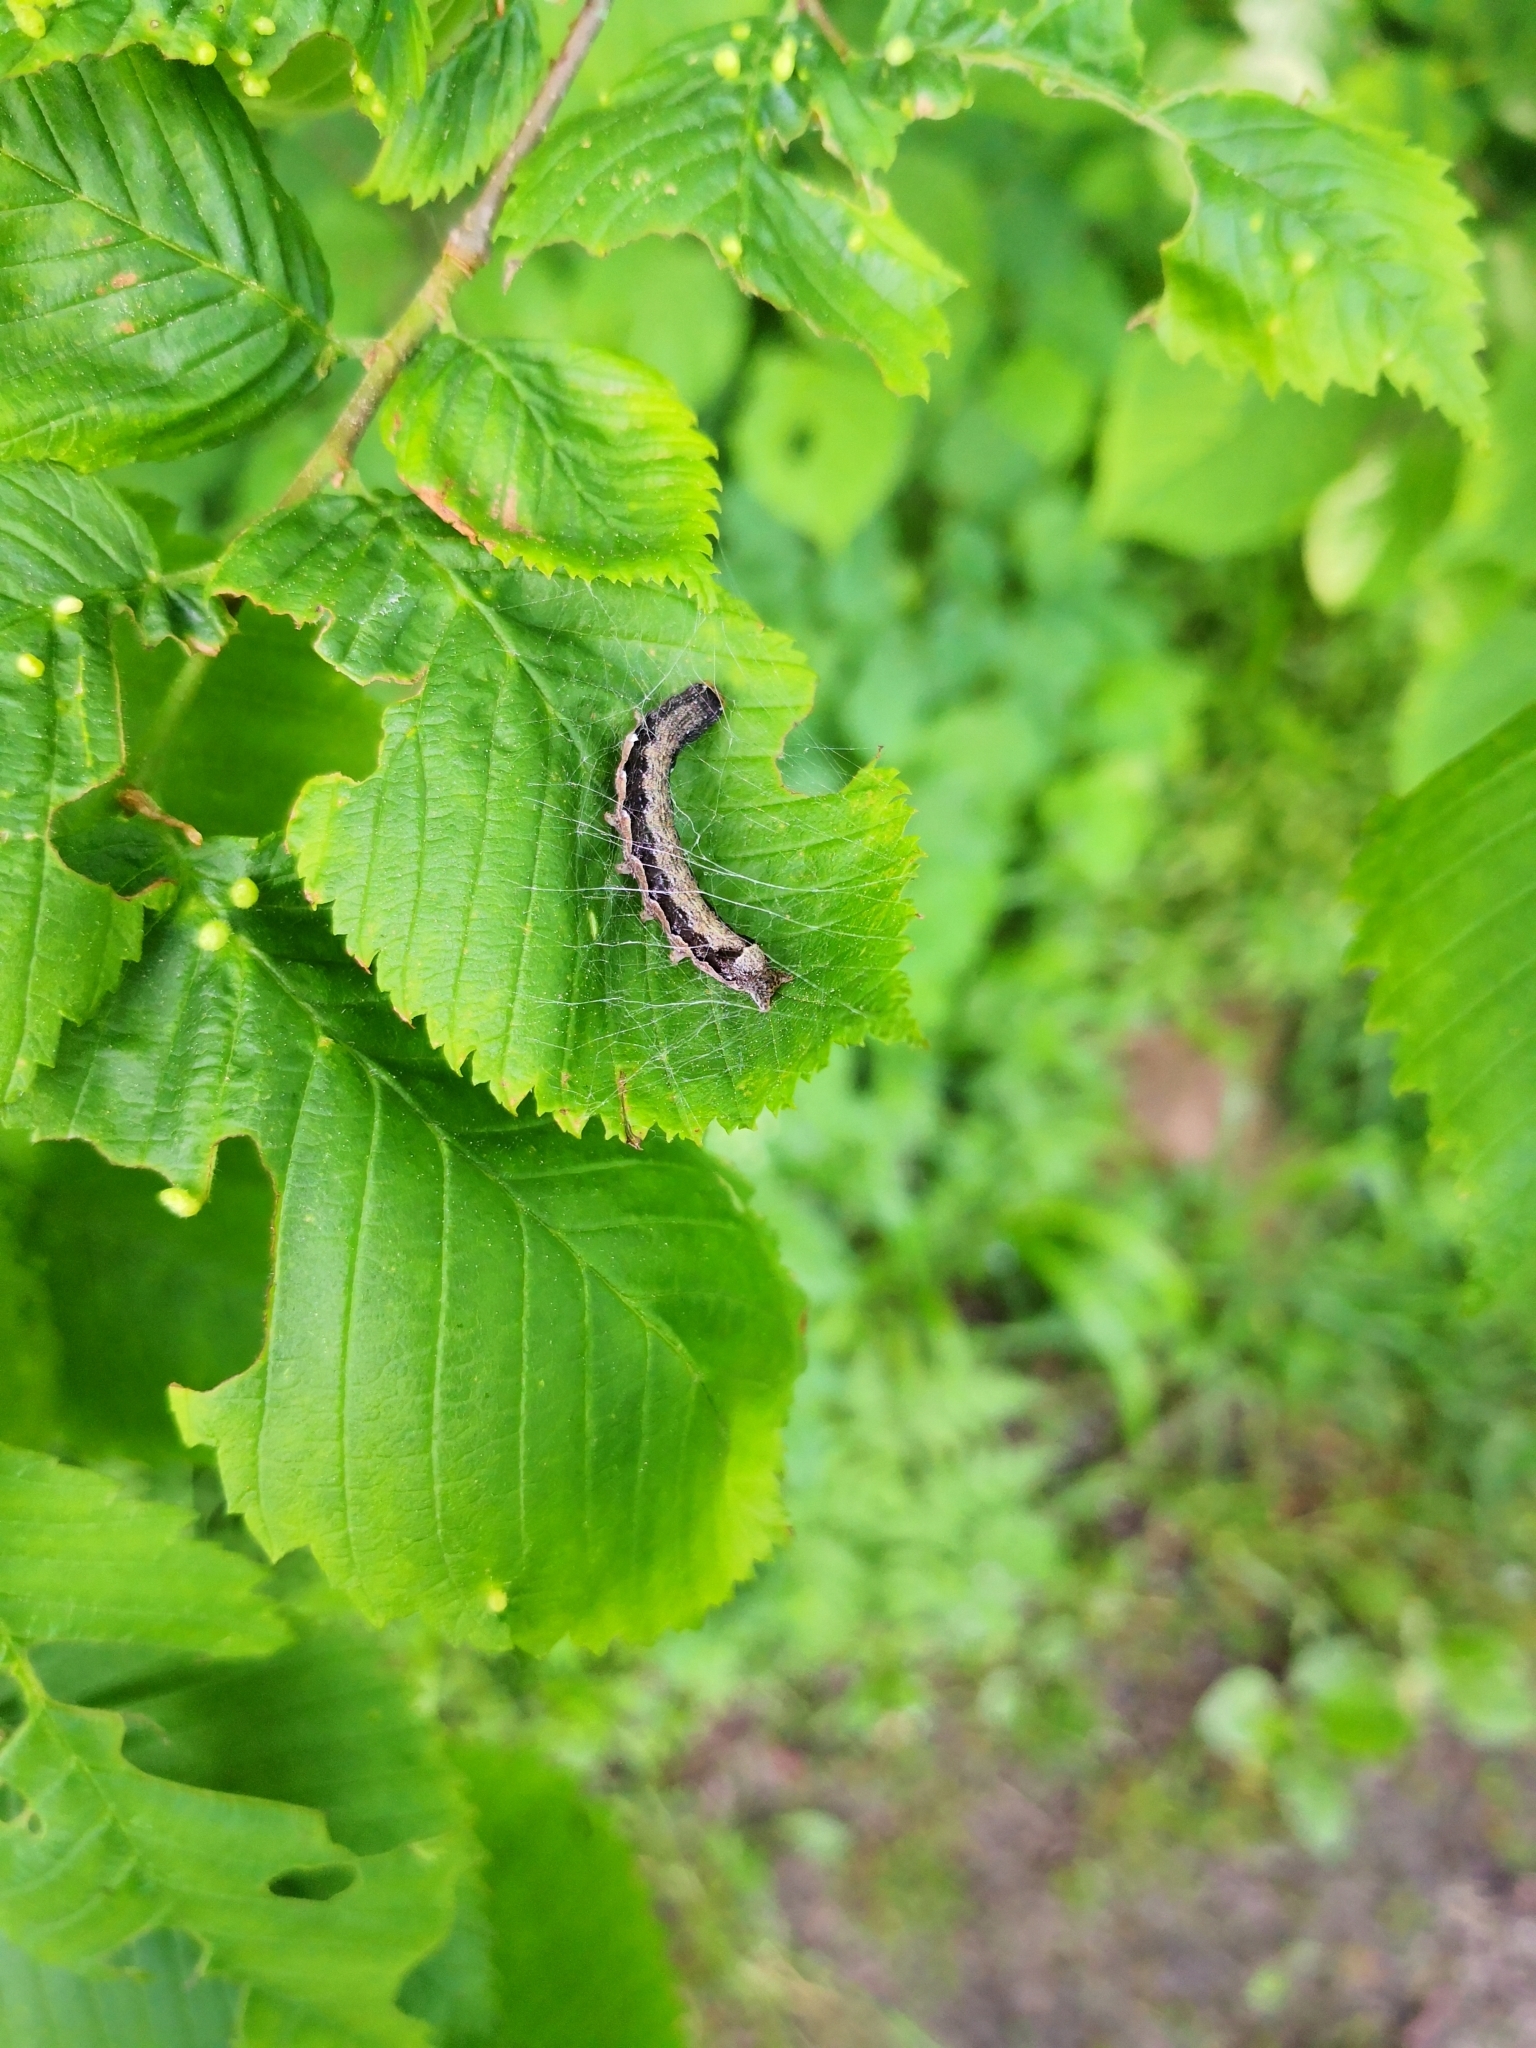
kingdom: Animalia
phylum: Arthropoda
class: Insecta
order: Lepidoptera
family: Noctuidae
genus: Anorthoa
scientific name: Anorthoa munda
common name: Twin-spotted quaker
